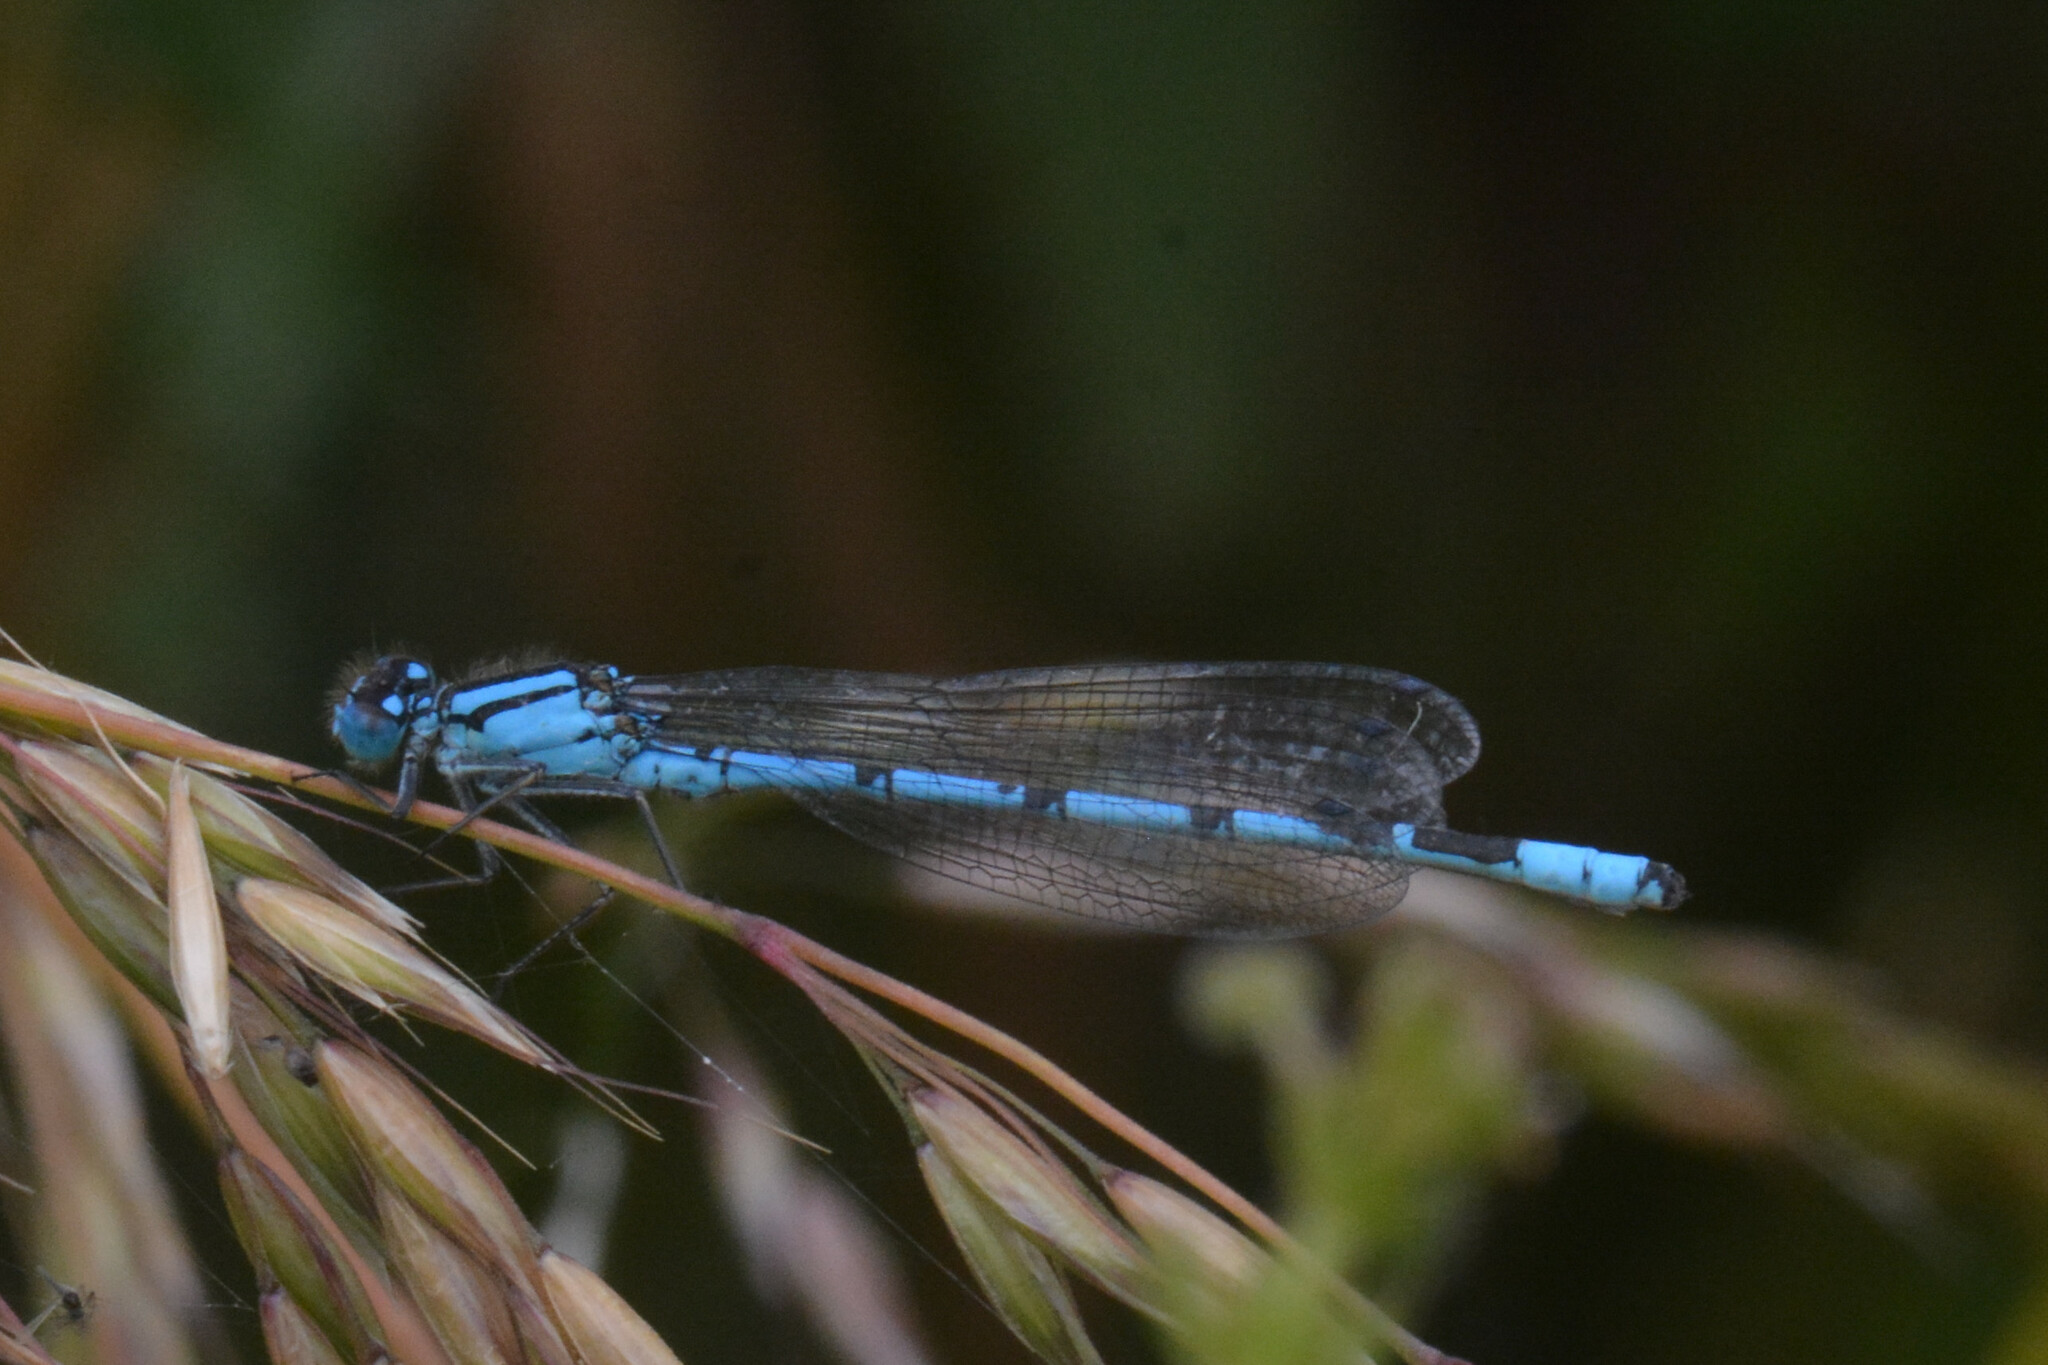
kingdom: Animalia
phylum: Arthropoda
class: Insecta
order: Odonata
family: Coenagrionidae
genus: Enallagma
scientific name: Enallagma cyathigerum
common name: Common blue damselfly
